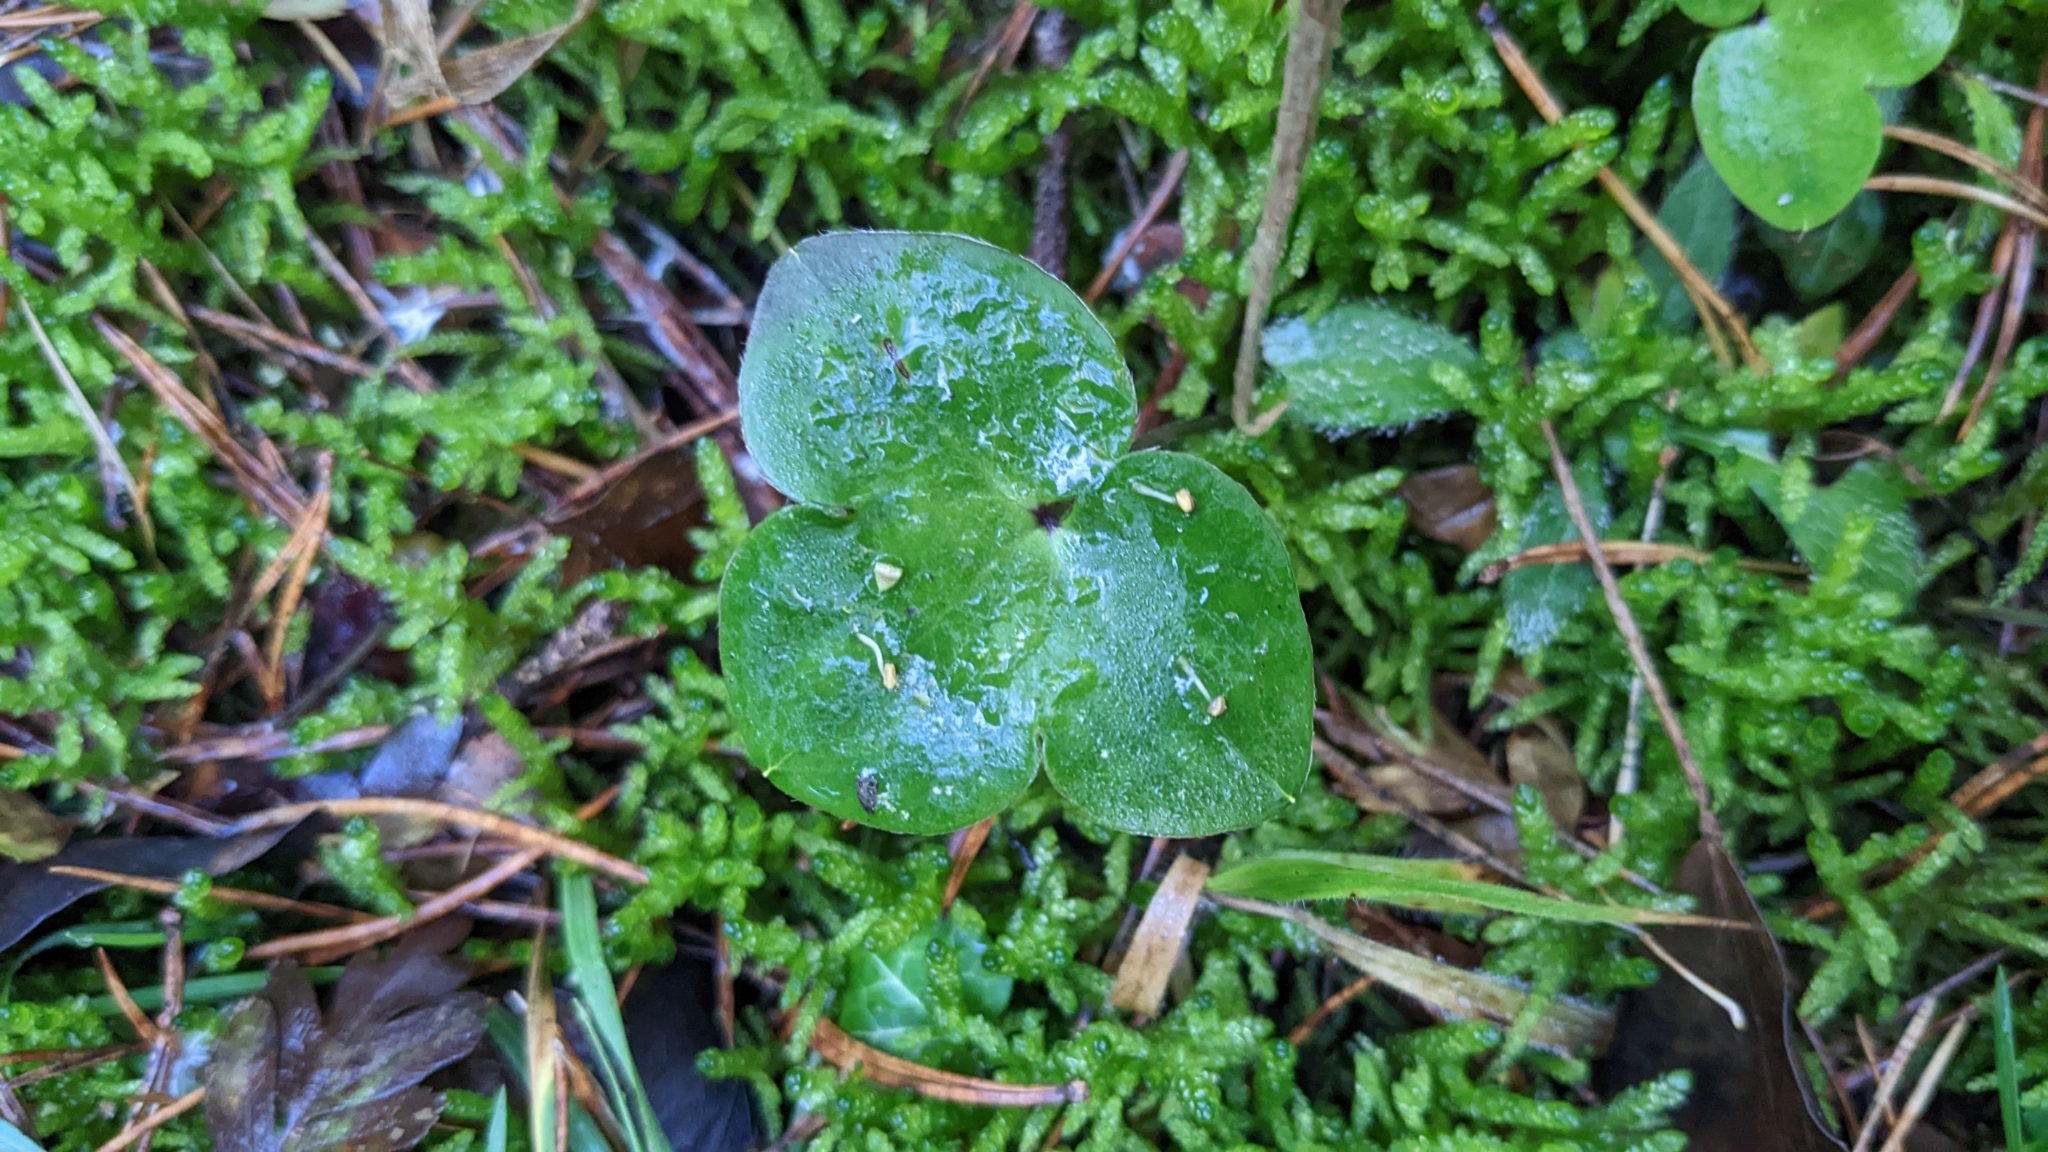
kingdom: Plantae
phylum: Tracheophyta
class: Magnoliopsida
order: Ranunculales
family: Ranunculaceae
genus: Hepatica
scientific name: Hepatica nobilis
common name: Liverleaf
